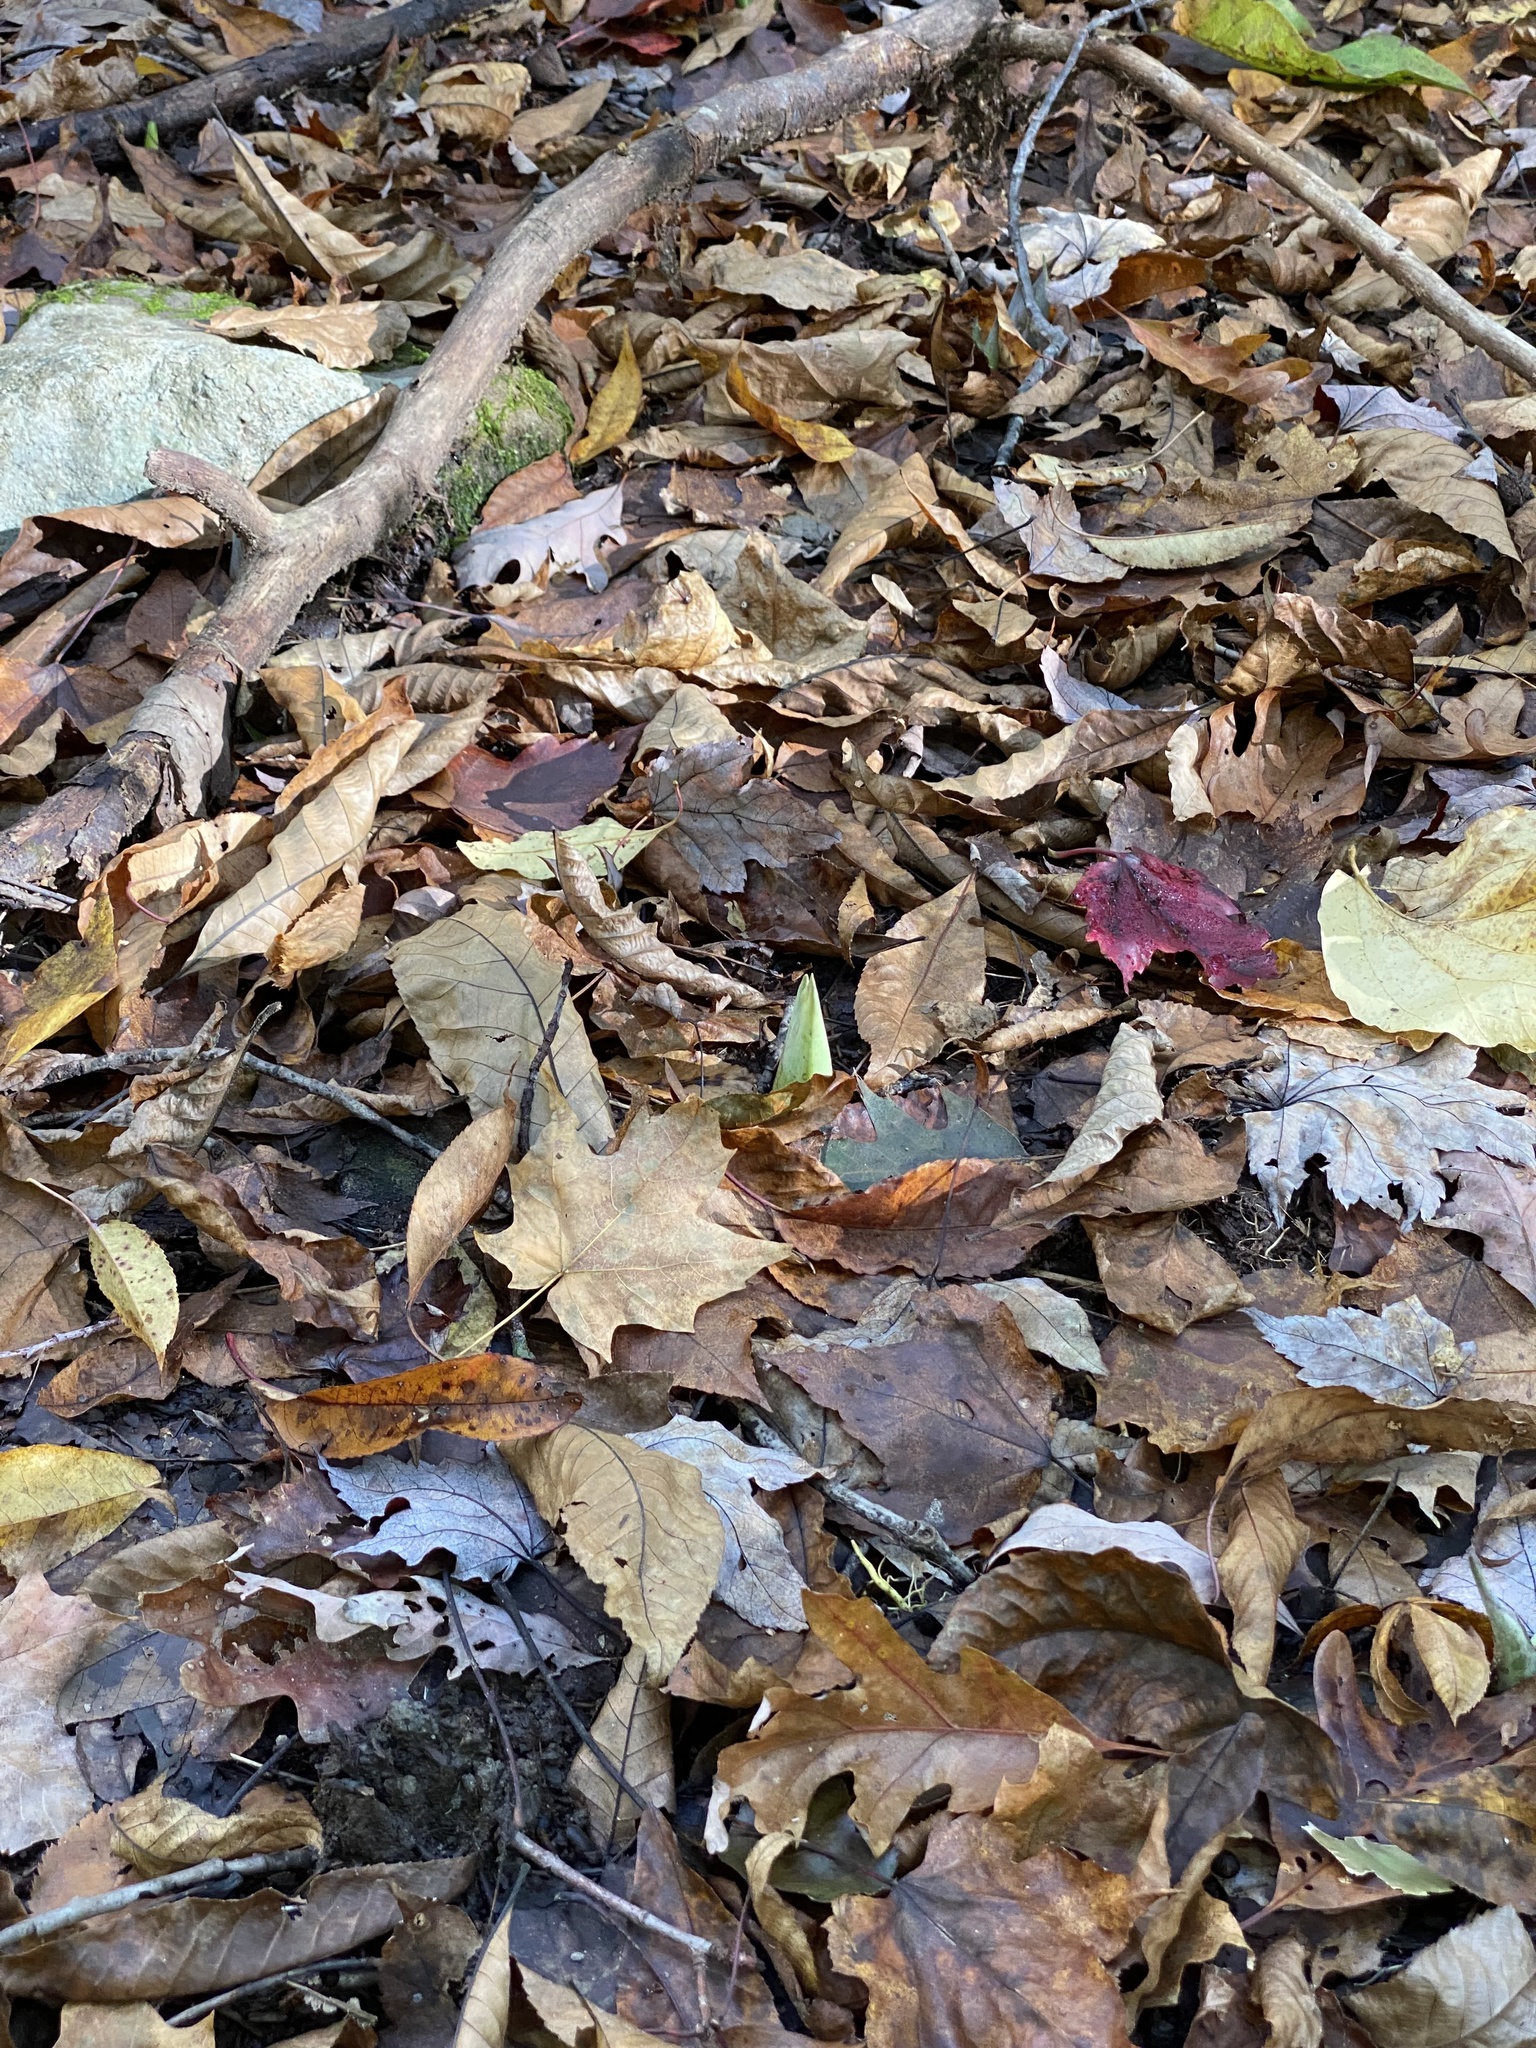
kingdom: Plantae
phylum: Tracheophyta
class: Liliopsida
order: Alismatales
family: Araceae
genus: Symplocarpus
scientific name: Symplocarpus foetidus
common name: Eastern skunk cabbage
